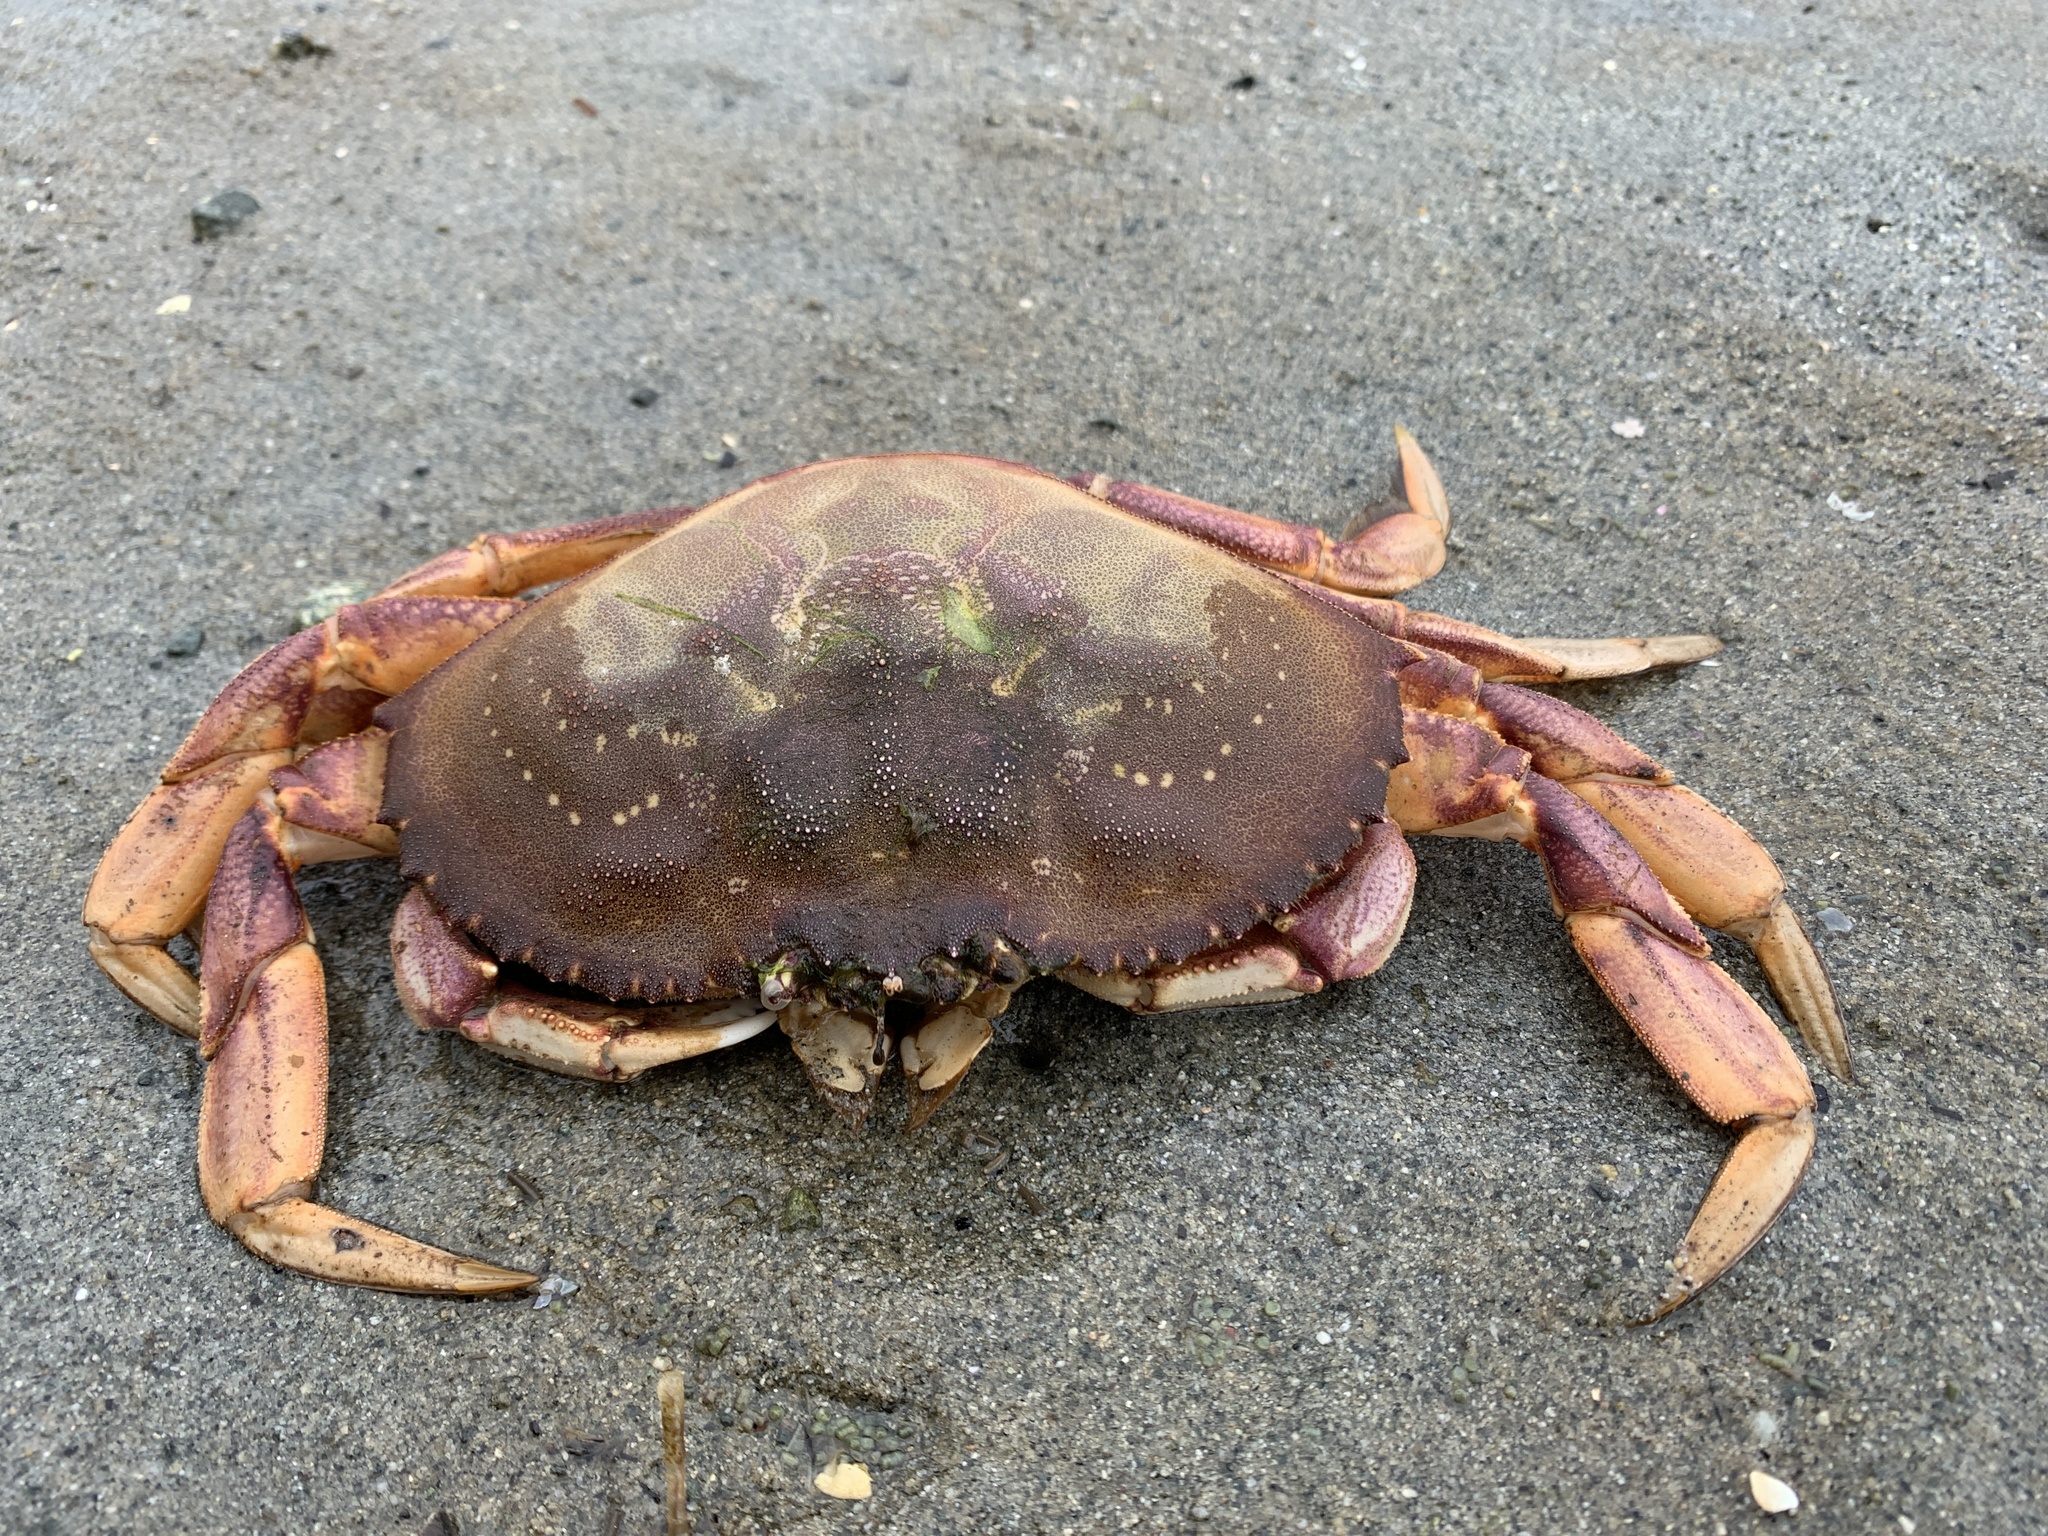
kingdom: Animalia
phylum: Arthropoda
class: Malacostraca
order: Decapoda
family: Cancridae
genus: Metacarcinus
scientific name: Metacarcinus magister
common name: Californian crab
